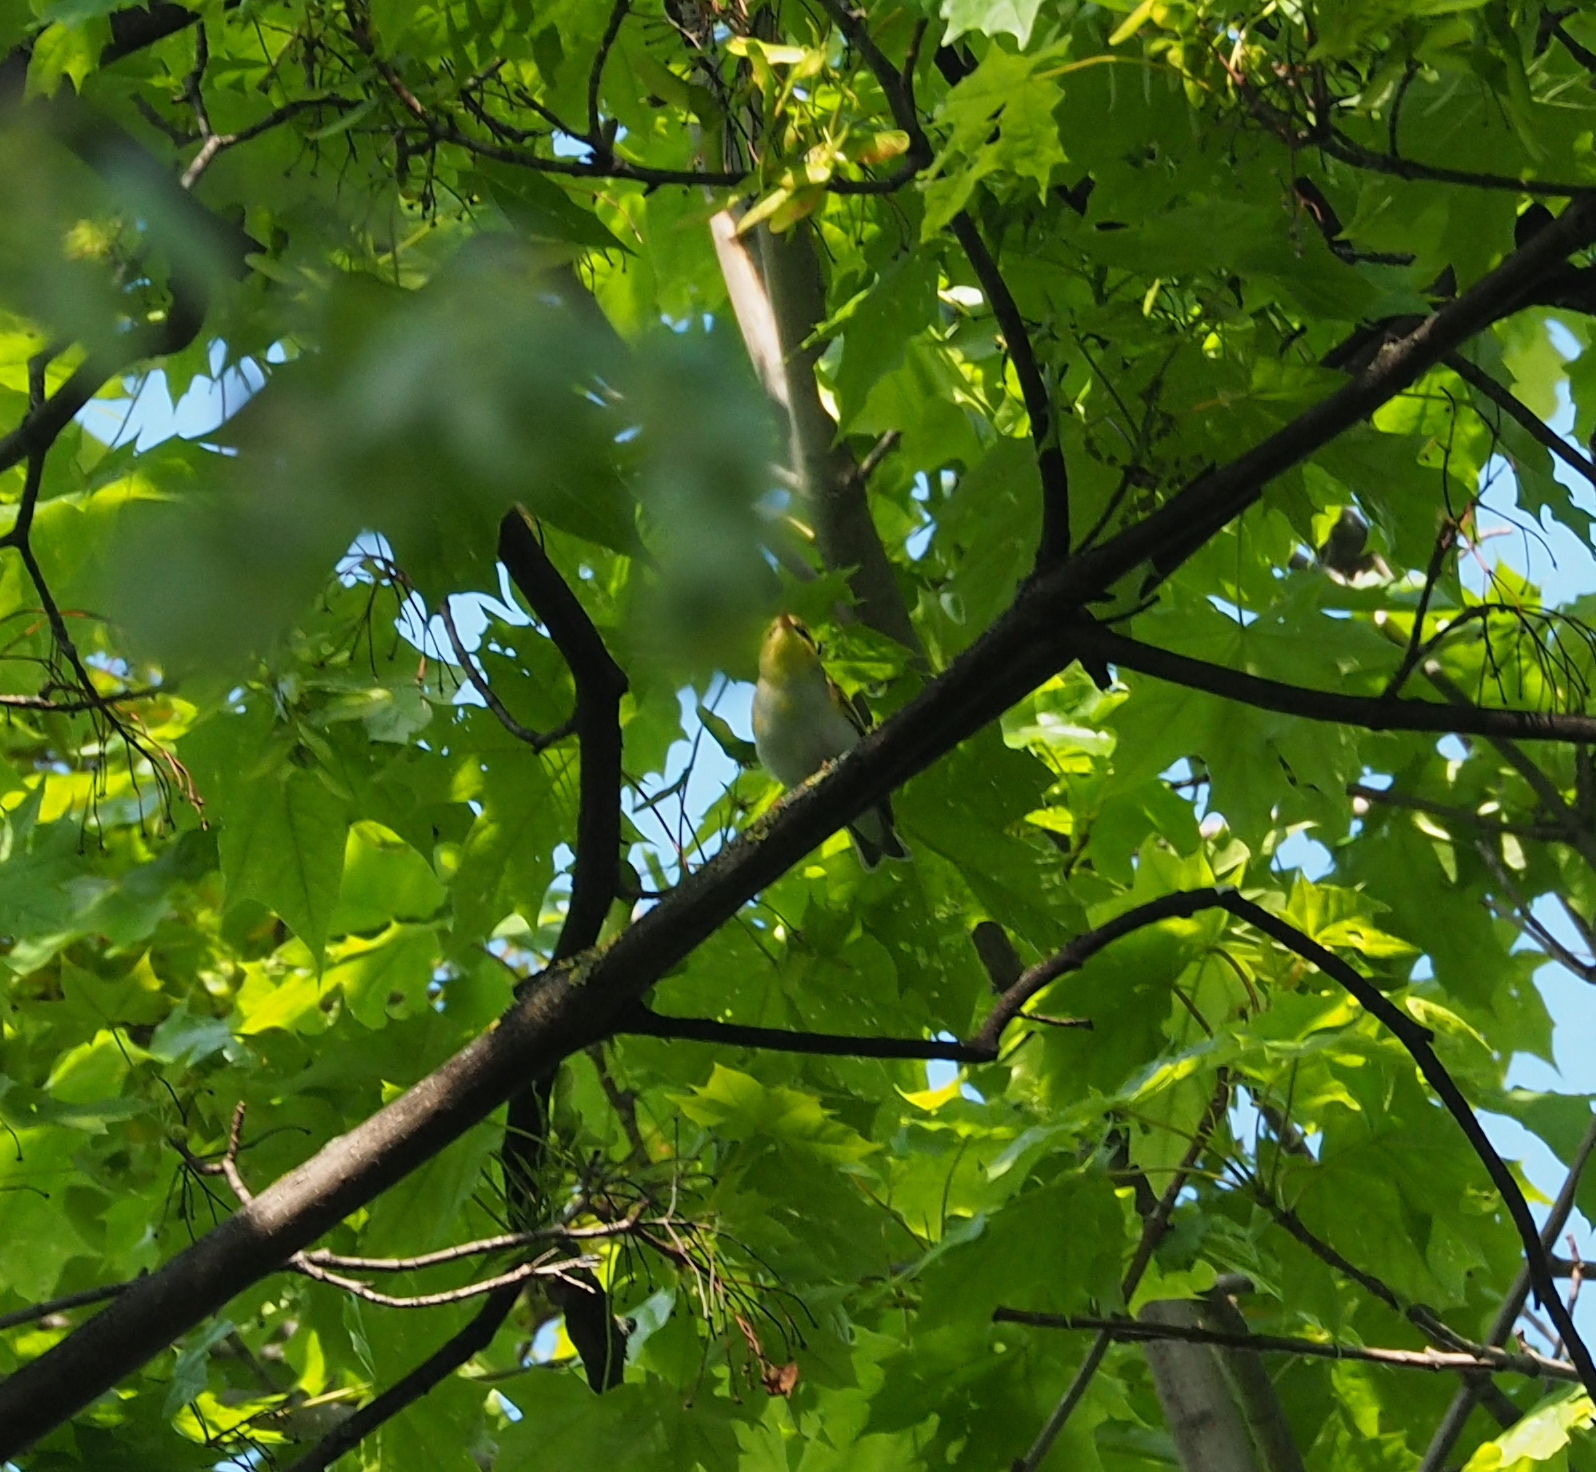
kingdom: Animalia
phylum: Chordata
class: Aves
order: Passeriformes
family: Phylloscopidae
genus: Phylloscopus
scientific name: Phylloscopus sibillatrix
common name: Wood warbler
